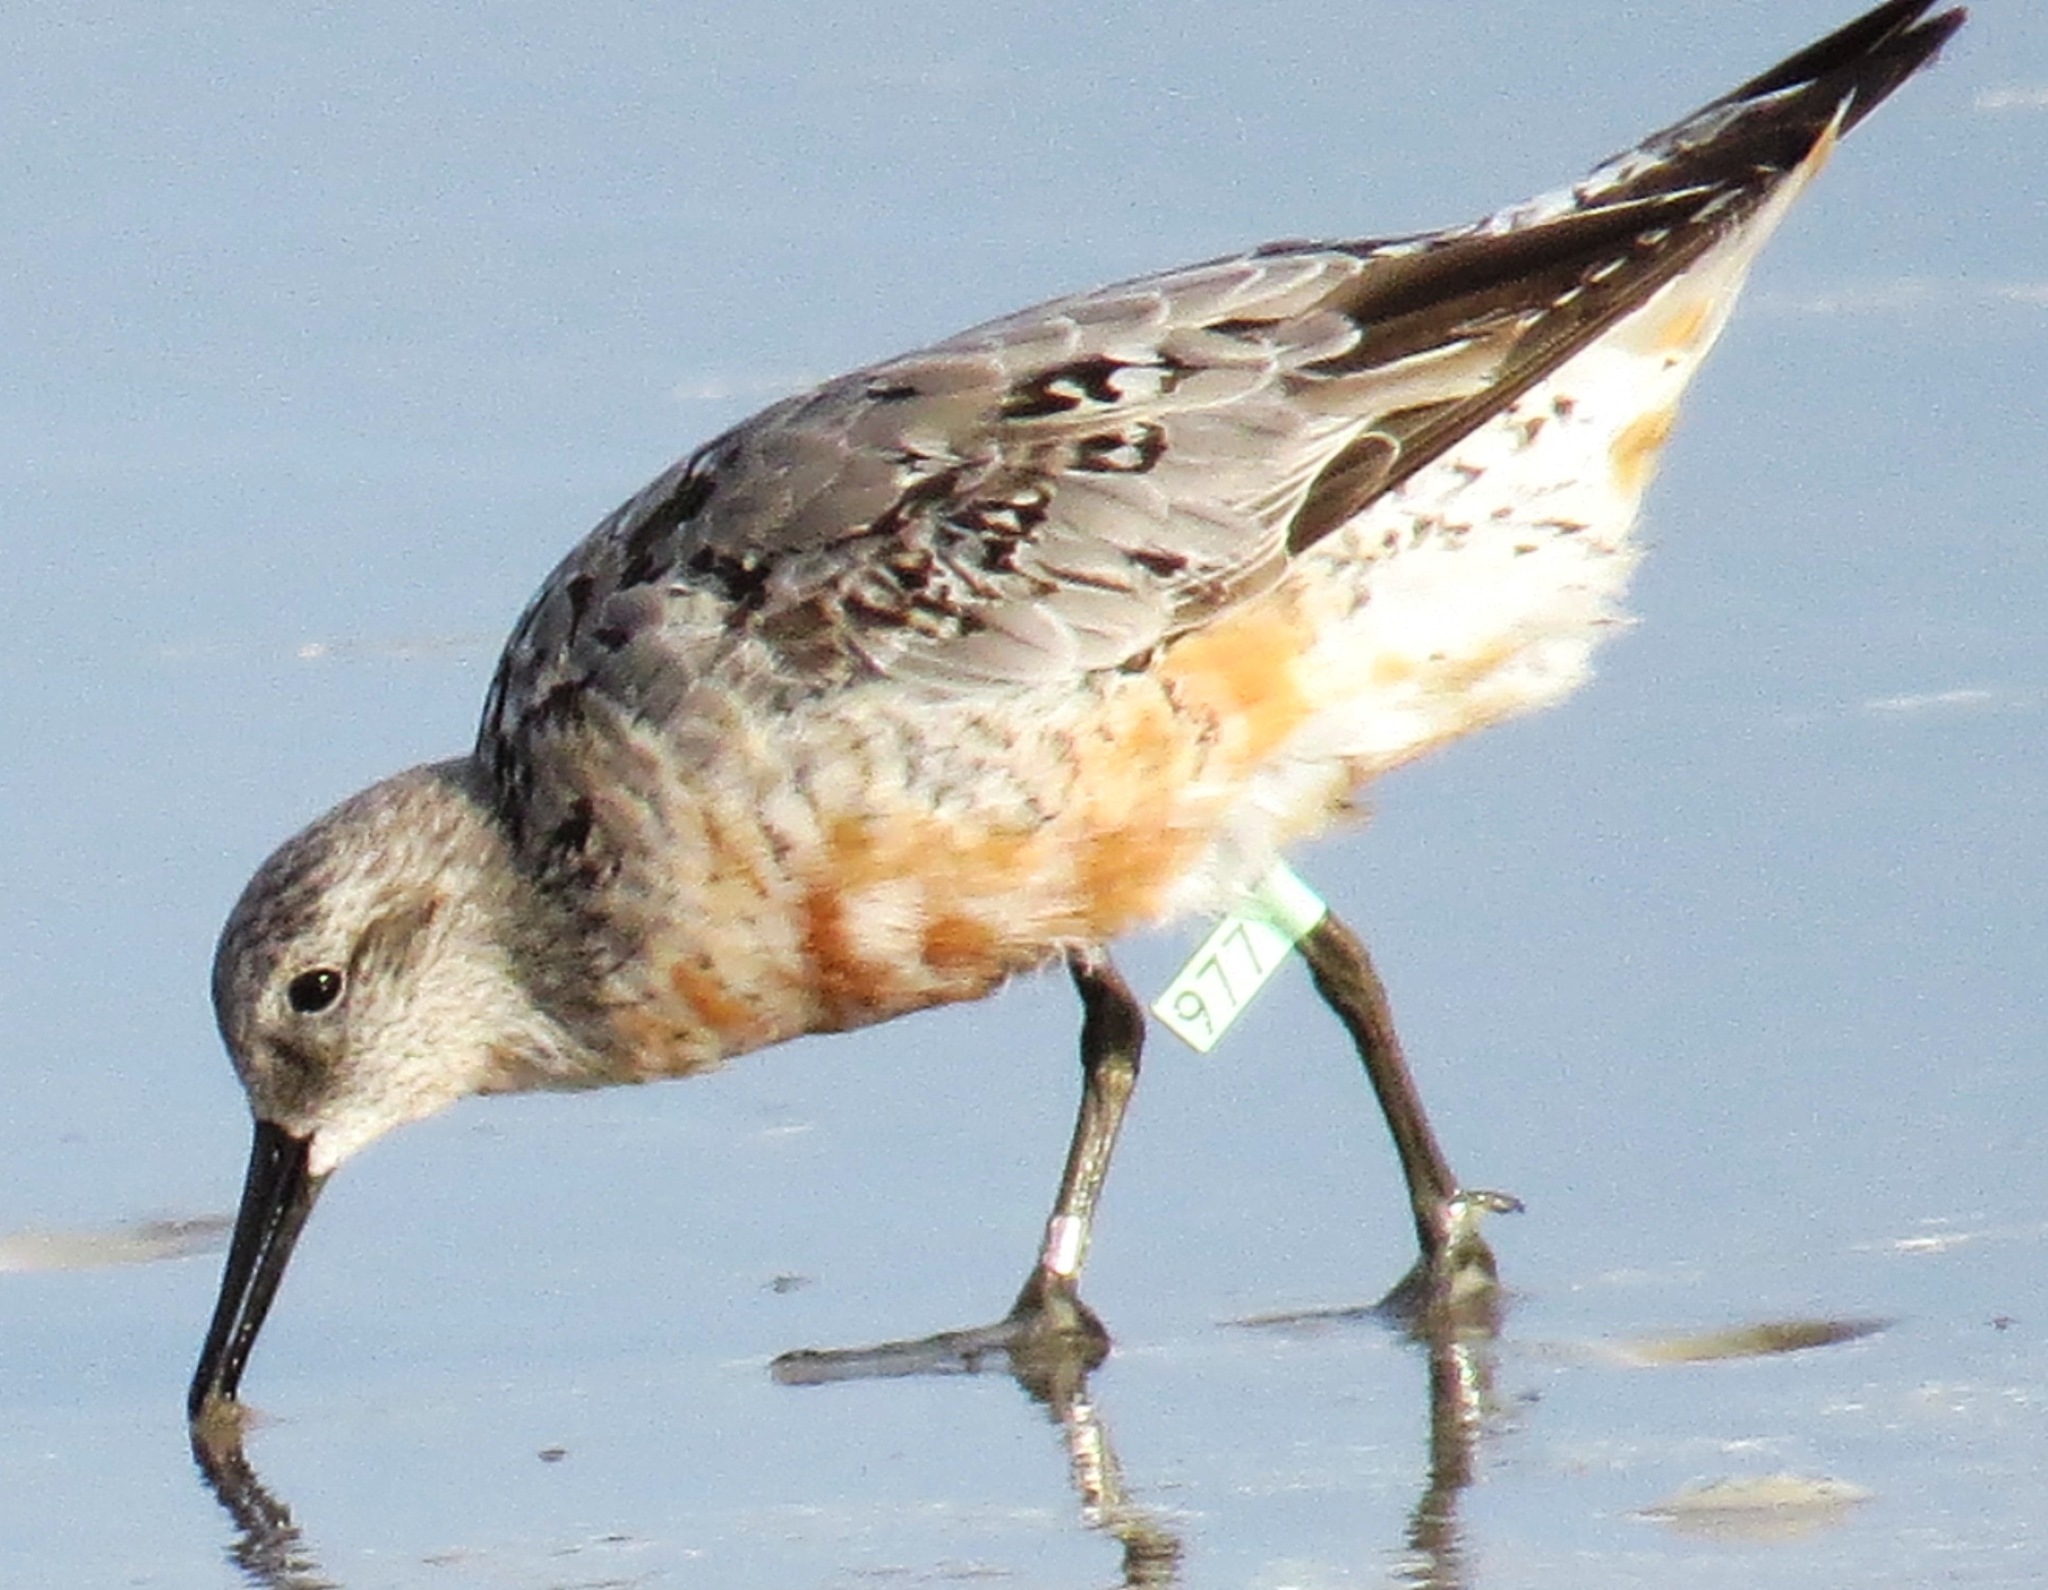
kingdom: Animalia
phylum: Chordata
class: Aves
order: Charadriiformes
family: Scolopacidae
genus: Calidris
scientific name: Calidris canutus
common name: Red knot
